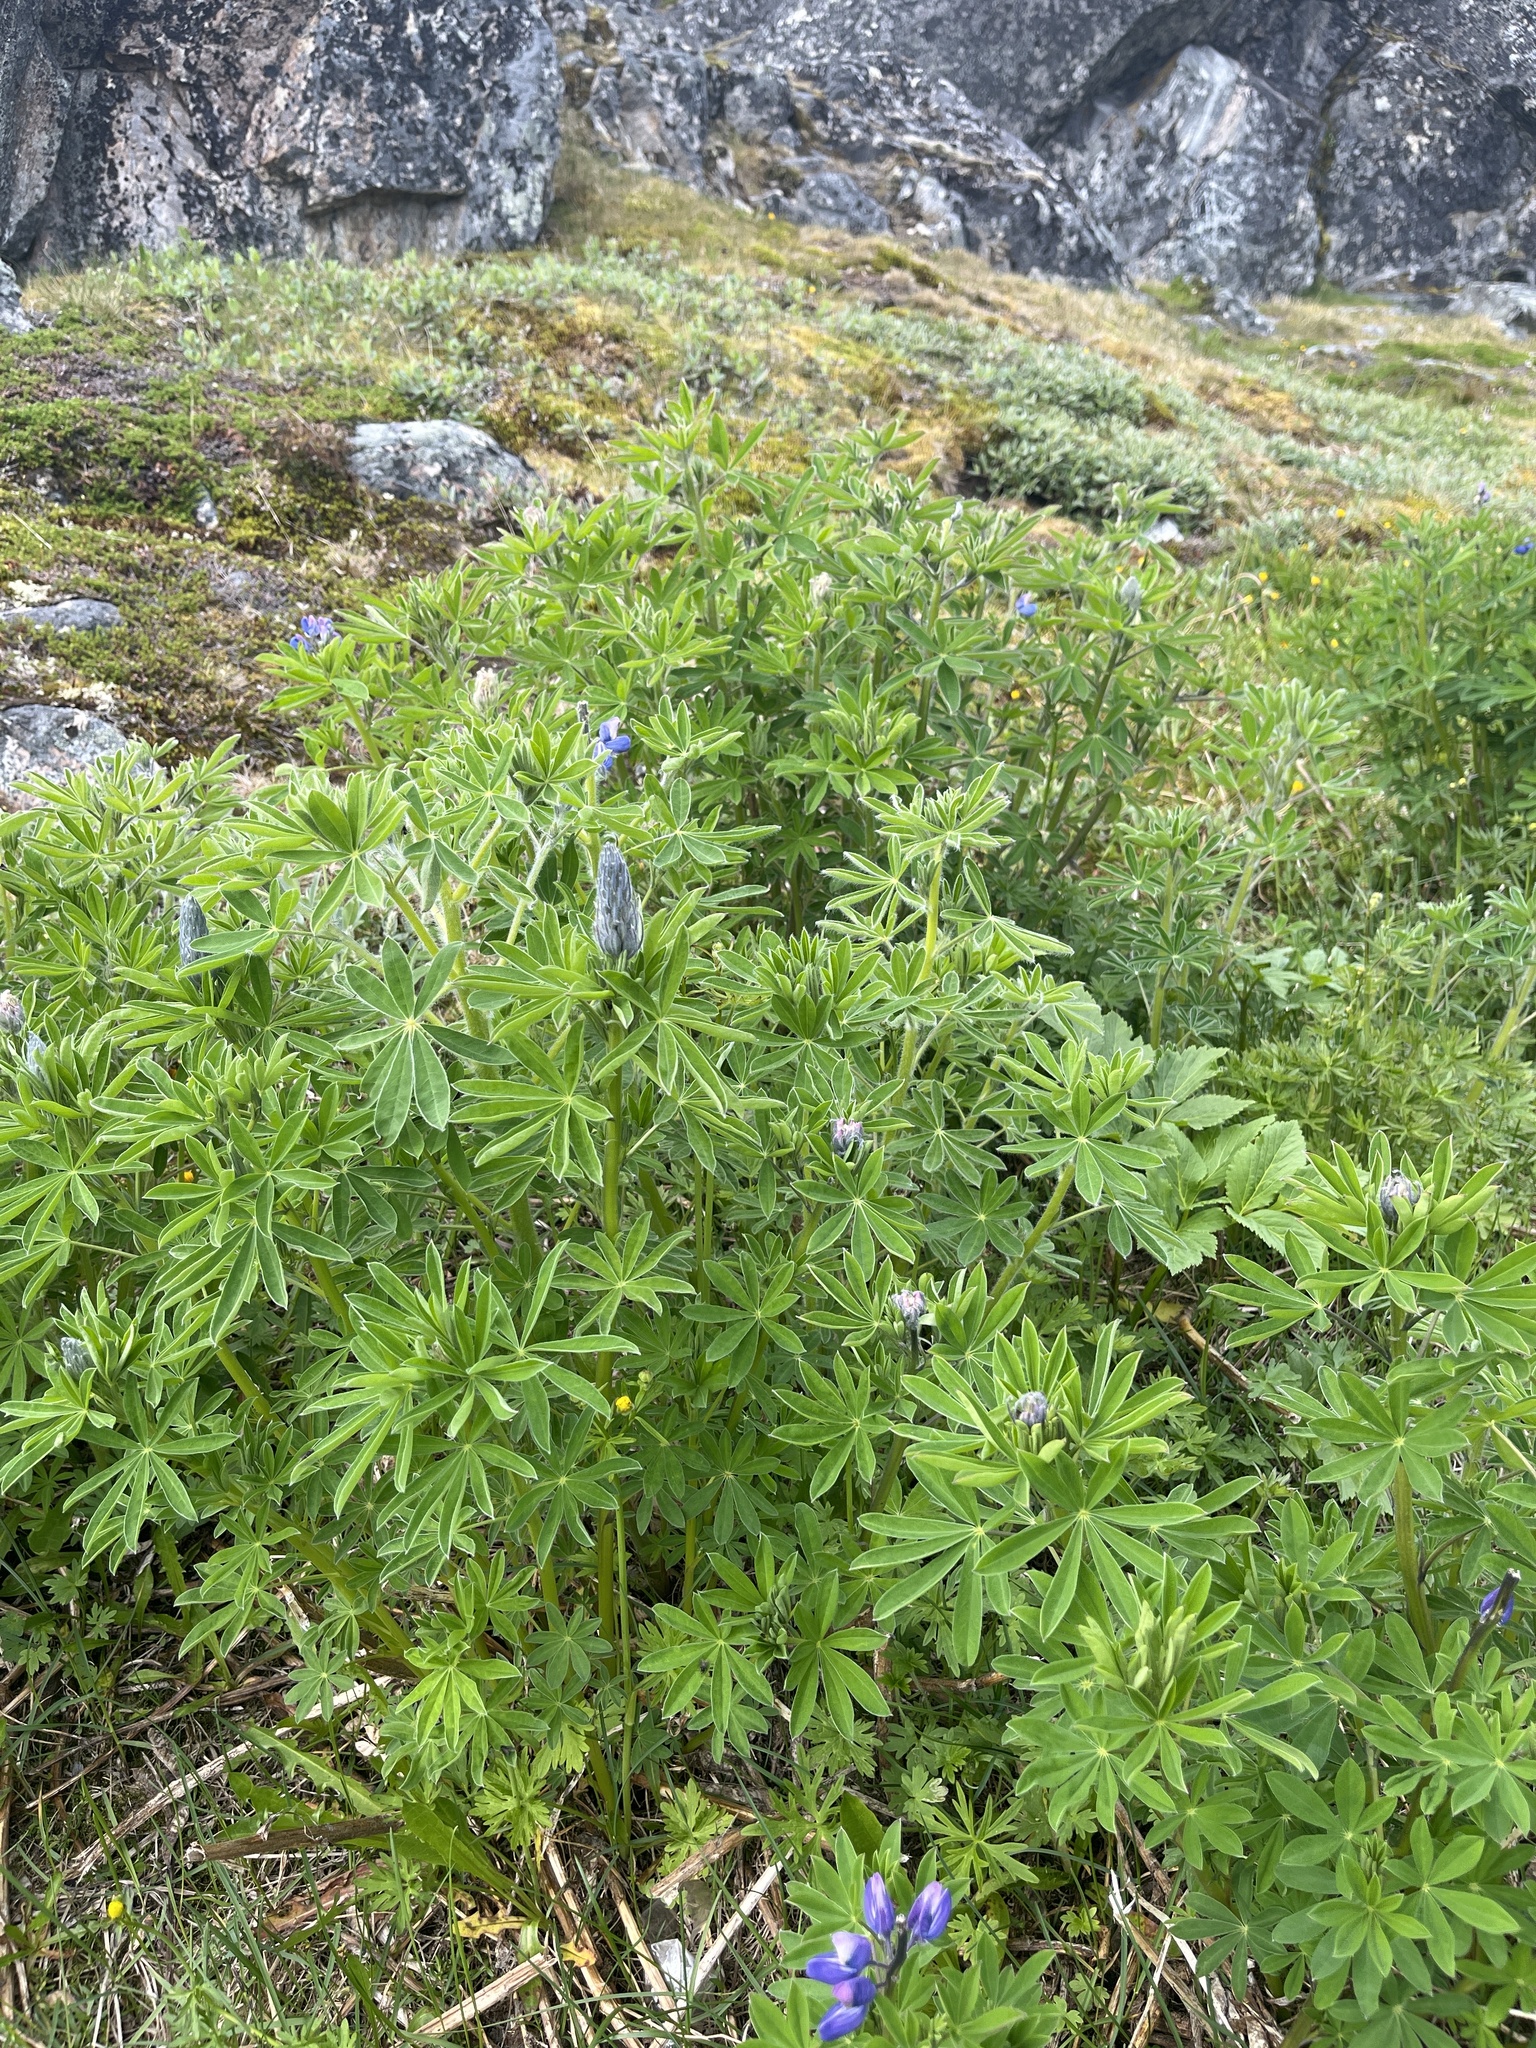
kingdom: Plantae
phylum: Tracheophyta
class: Magnoliopsida
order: Fabales
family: Fabaceae
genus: Lupinus
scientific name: Lupinus nootkatensis
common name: Nootka lupine
